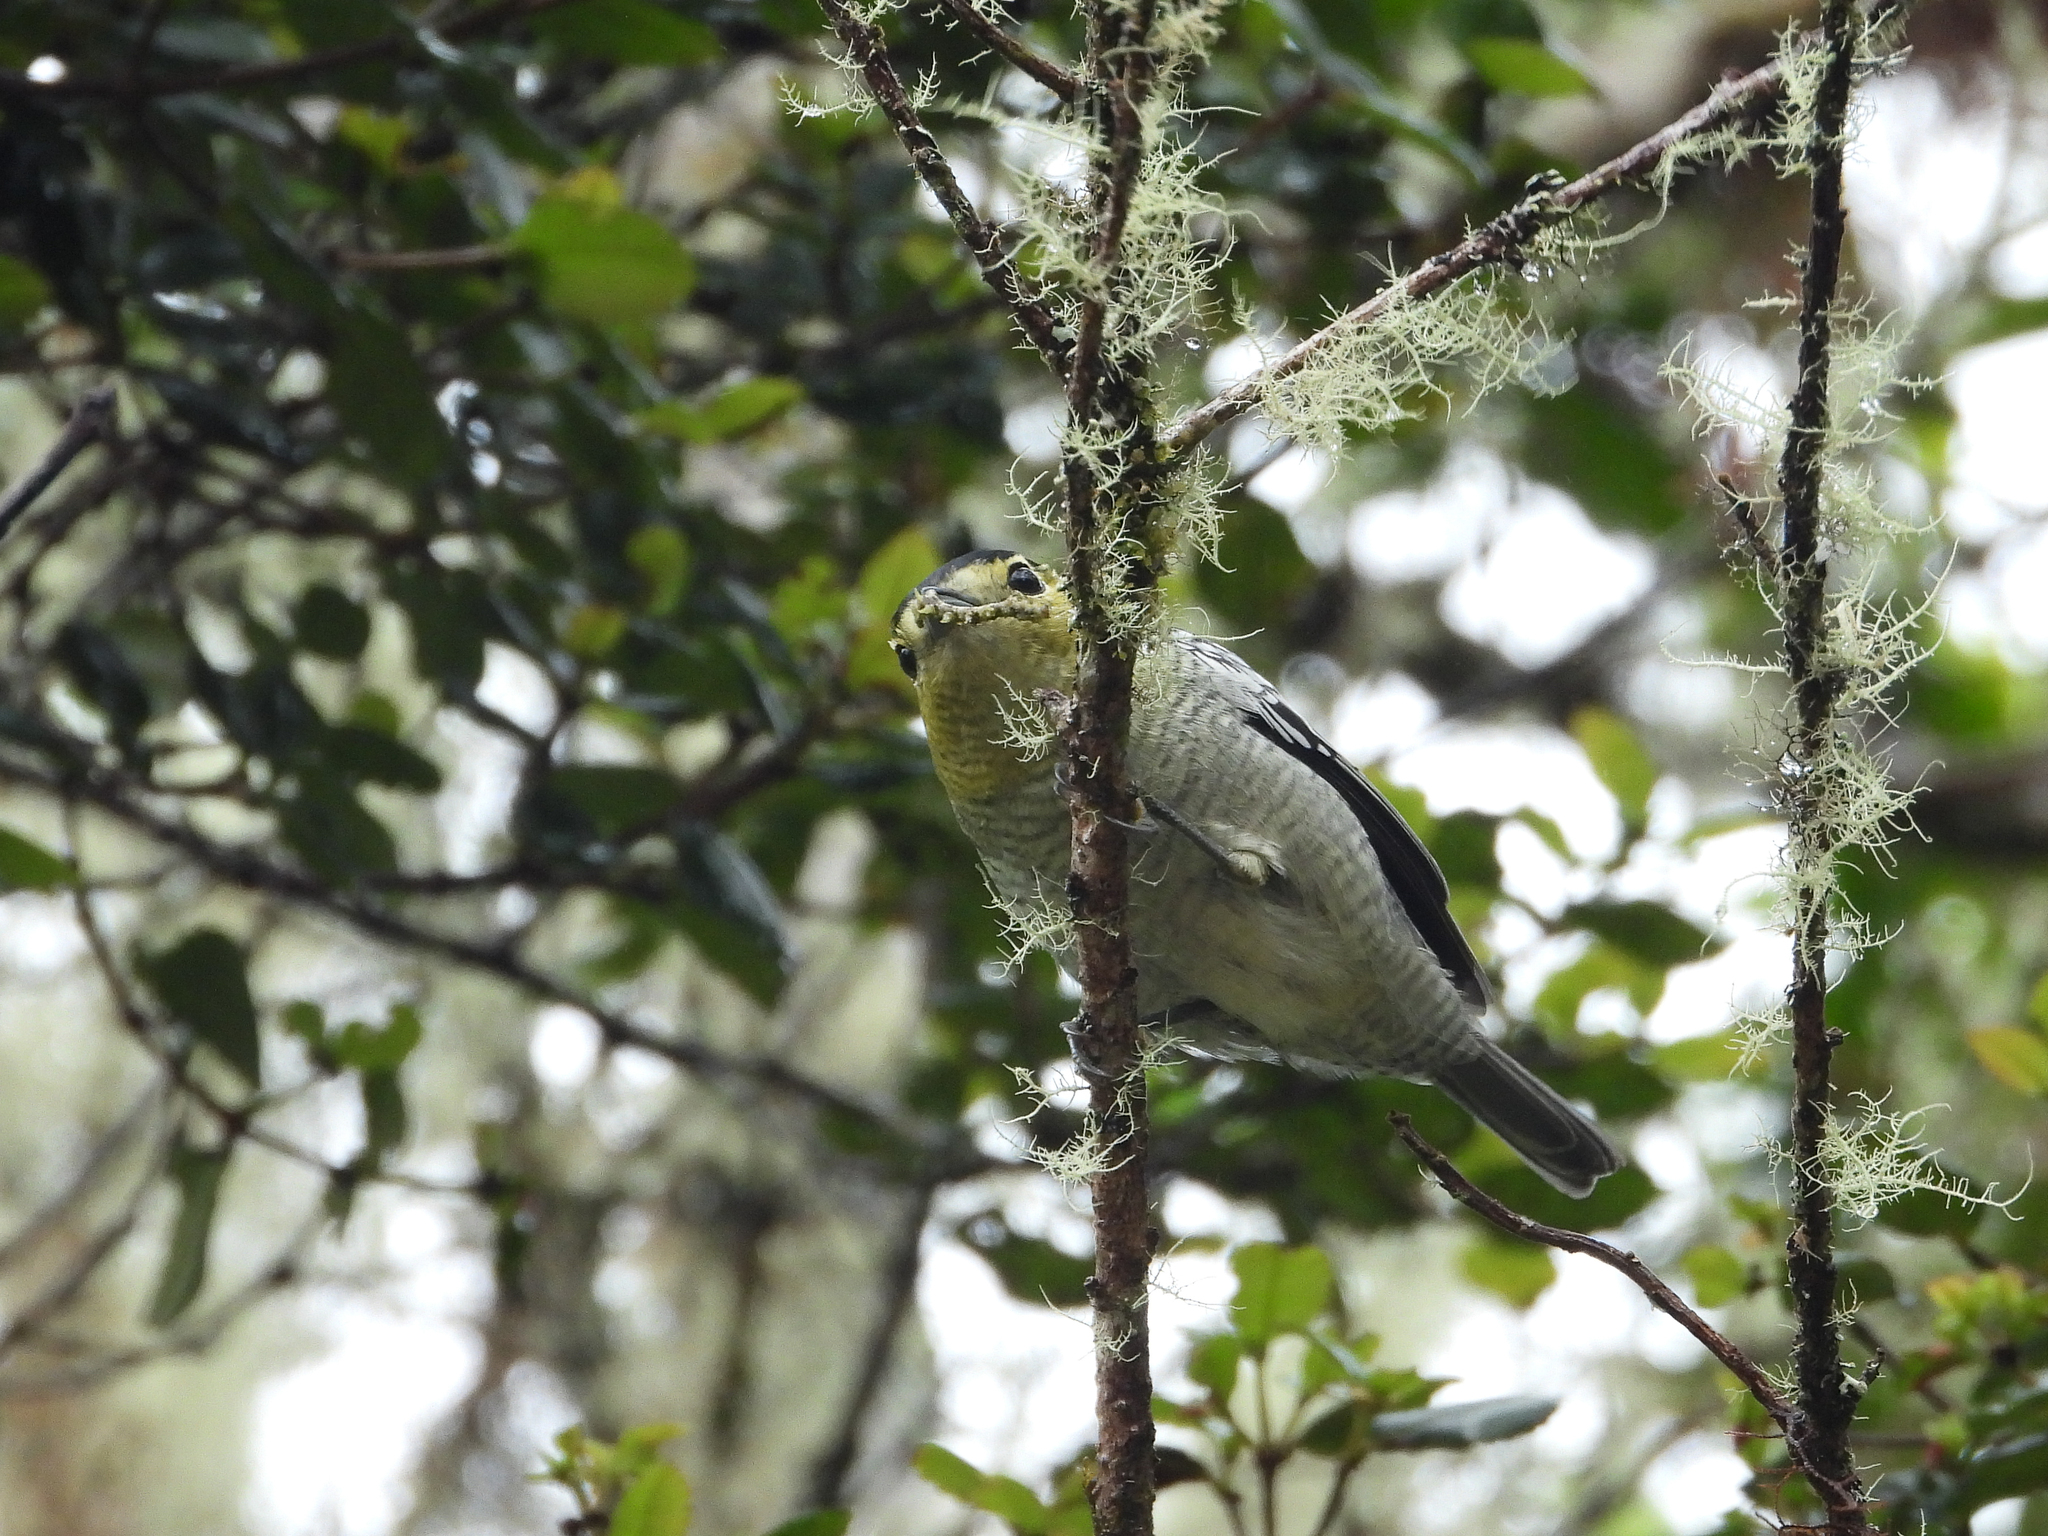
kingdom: Animalia
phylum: Chordata
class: Aves
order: Passeriformes
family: Cotingidae
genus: Pachyramphus
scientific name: Pachyramphus versicolor
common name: Barred becard
